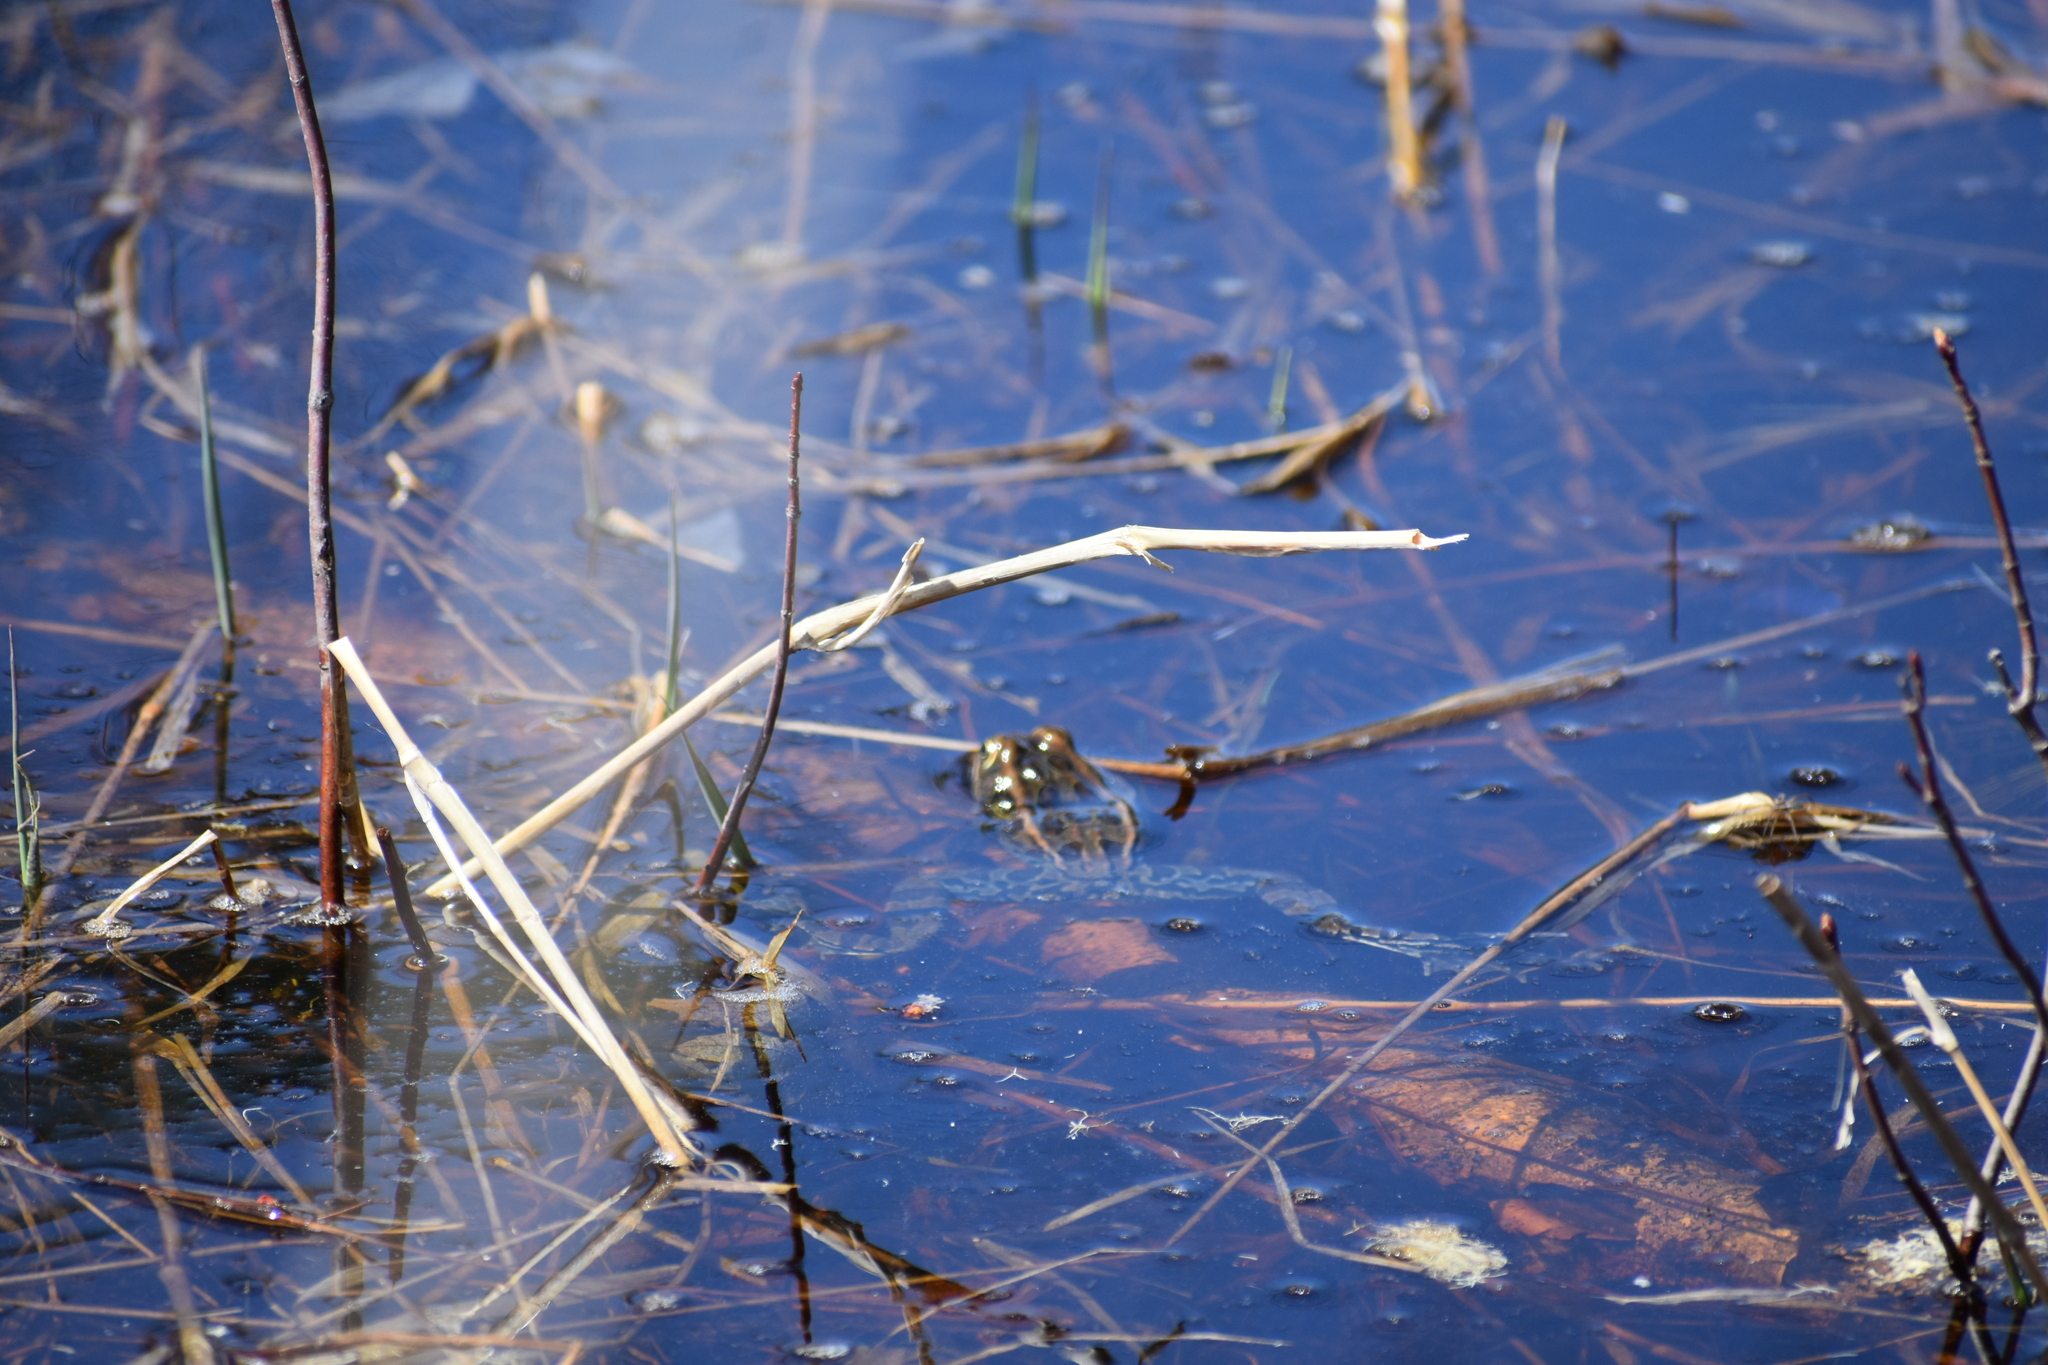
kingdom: Animalia
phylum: Chordata
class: Amphibia
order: Anura
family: Ranidae
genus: Lithobates
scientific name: Lithobates pipiens
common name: Northern leopard frog
